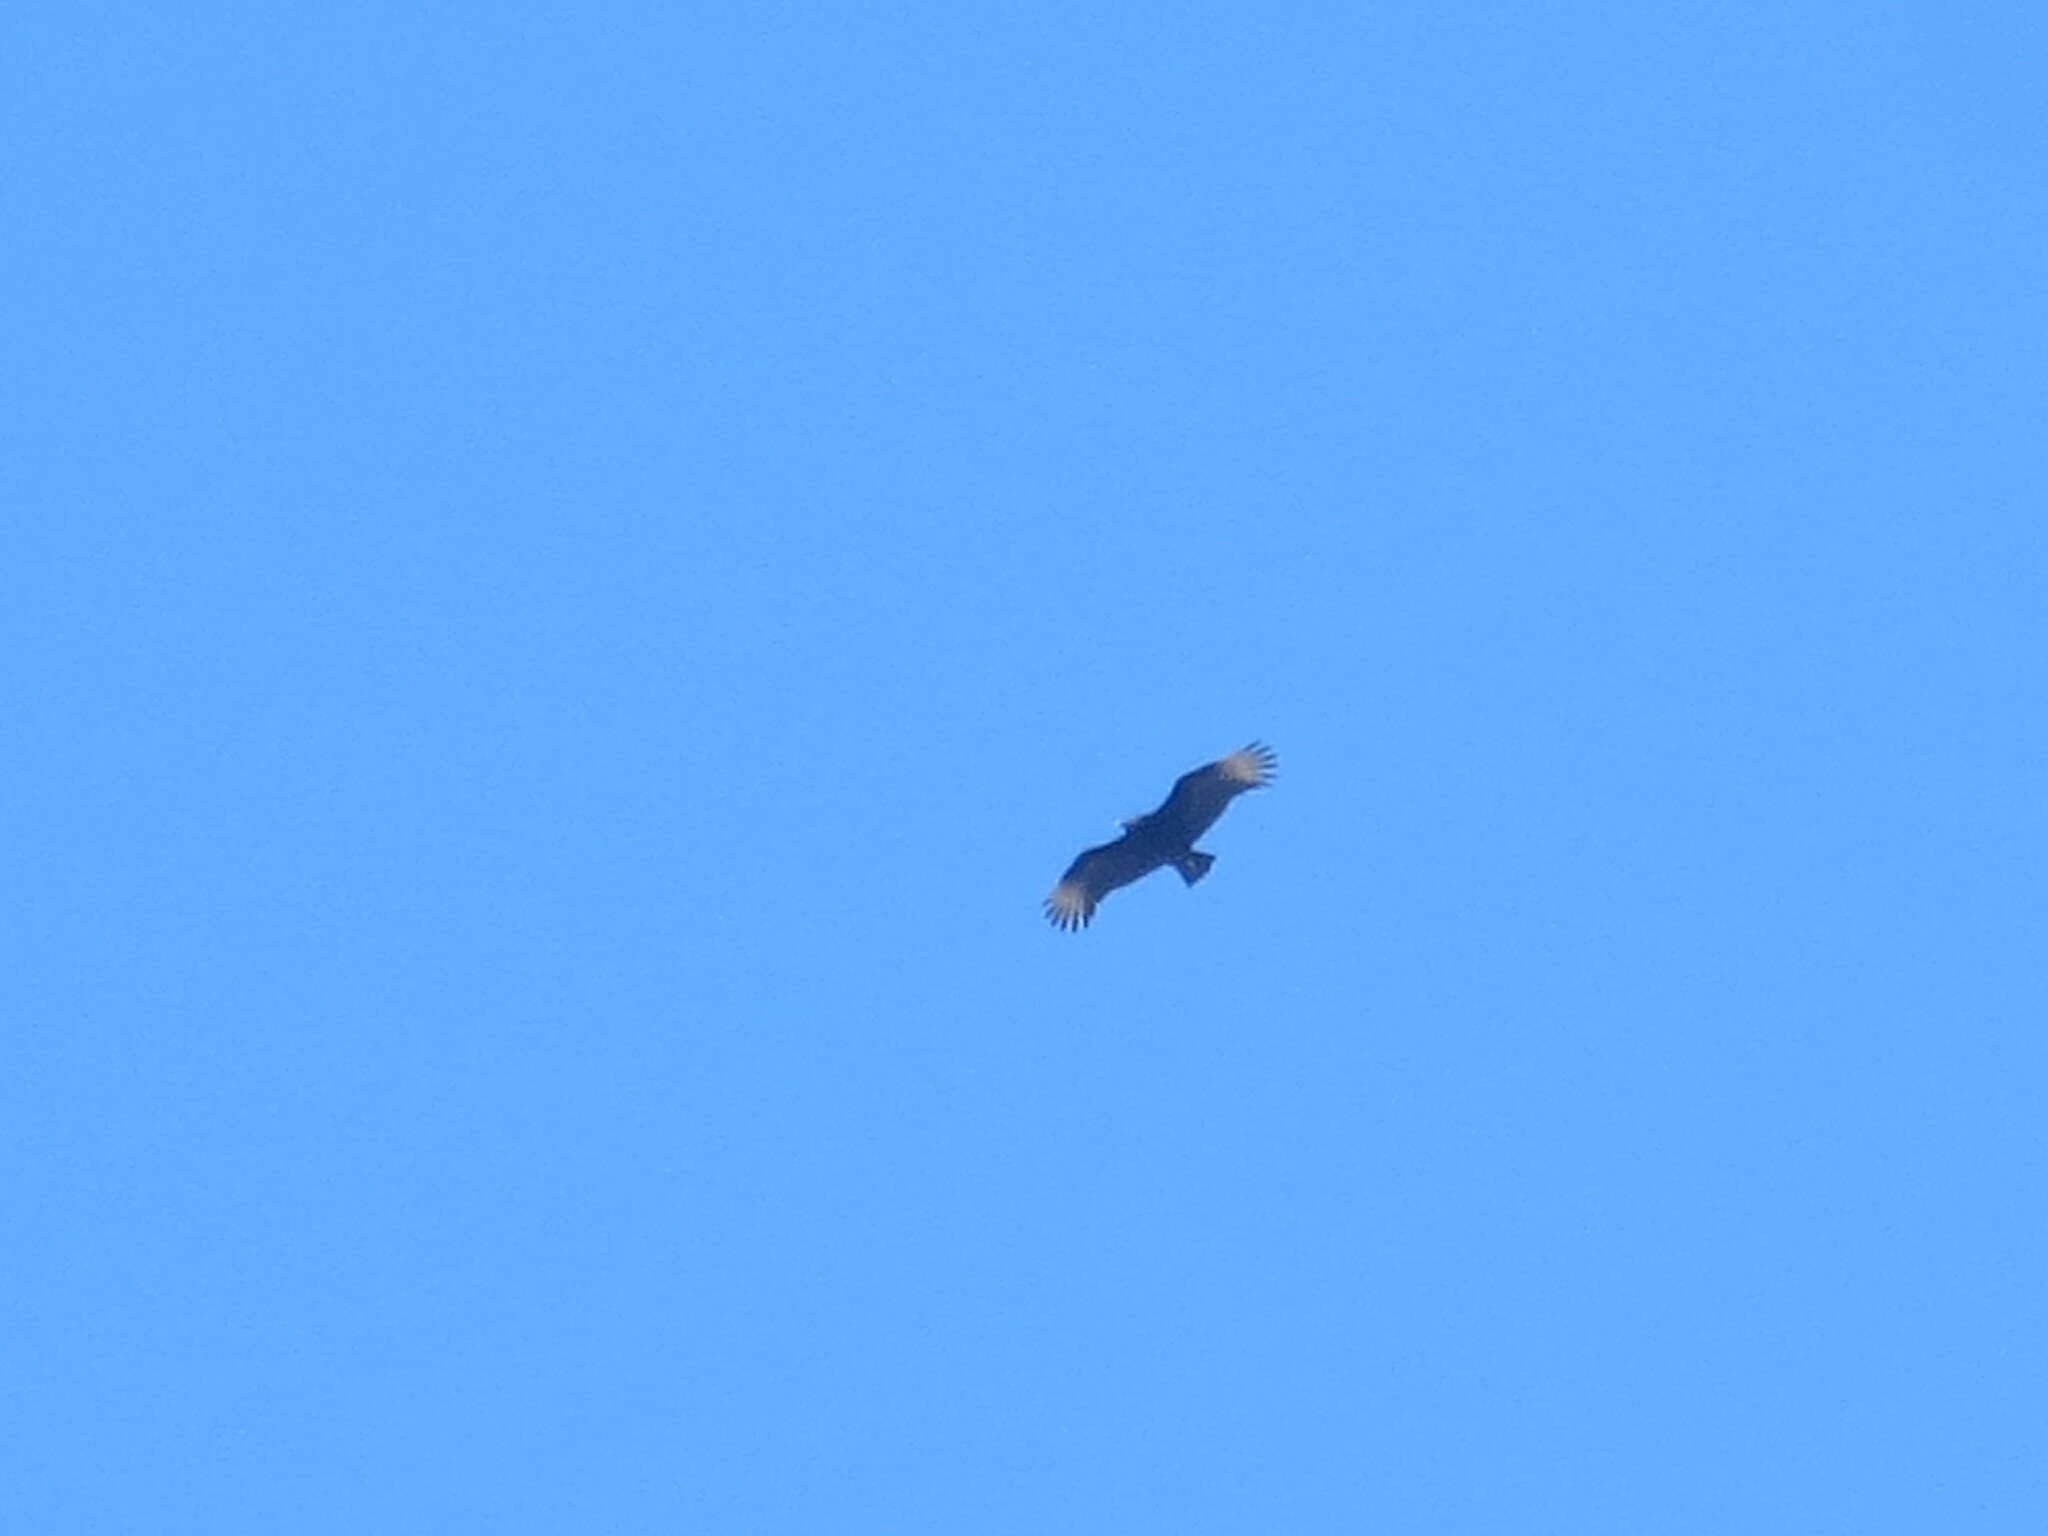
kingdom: Animalia
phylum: Chordata
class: Aves
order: Accipitriformes
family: Cathartidae
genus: Coragyps
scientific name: Coragyps atratus
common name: Black vulture
